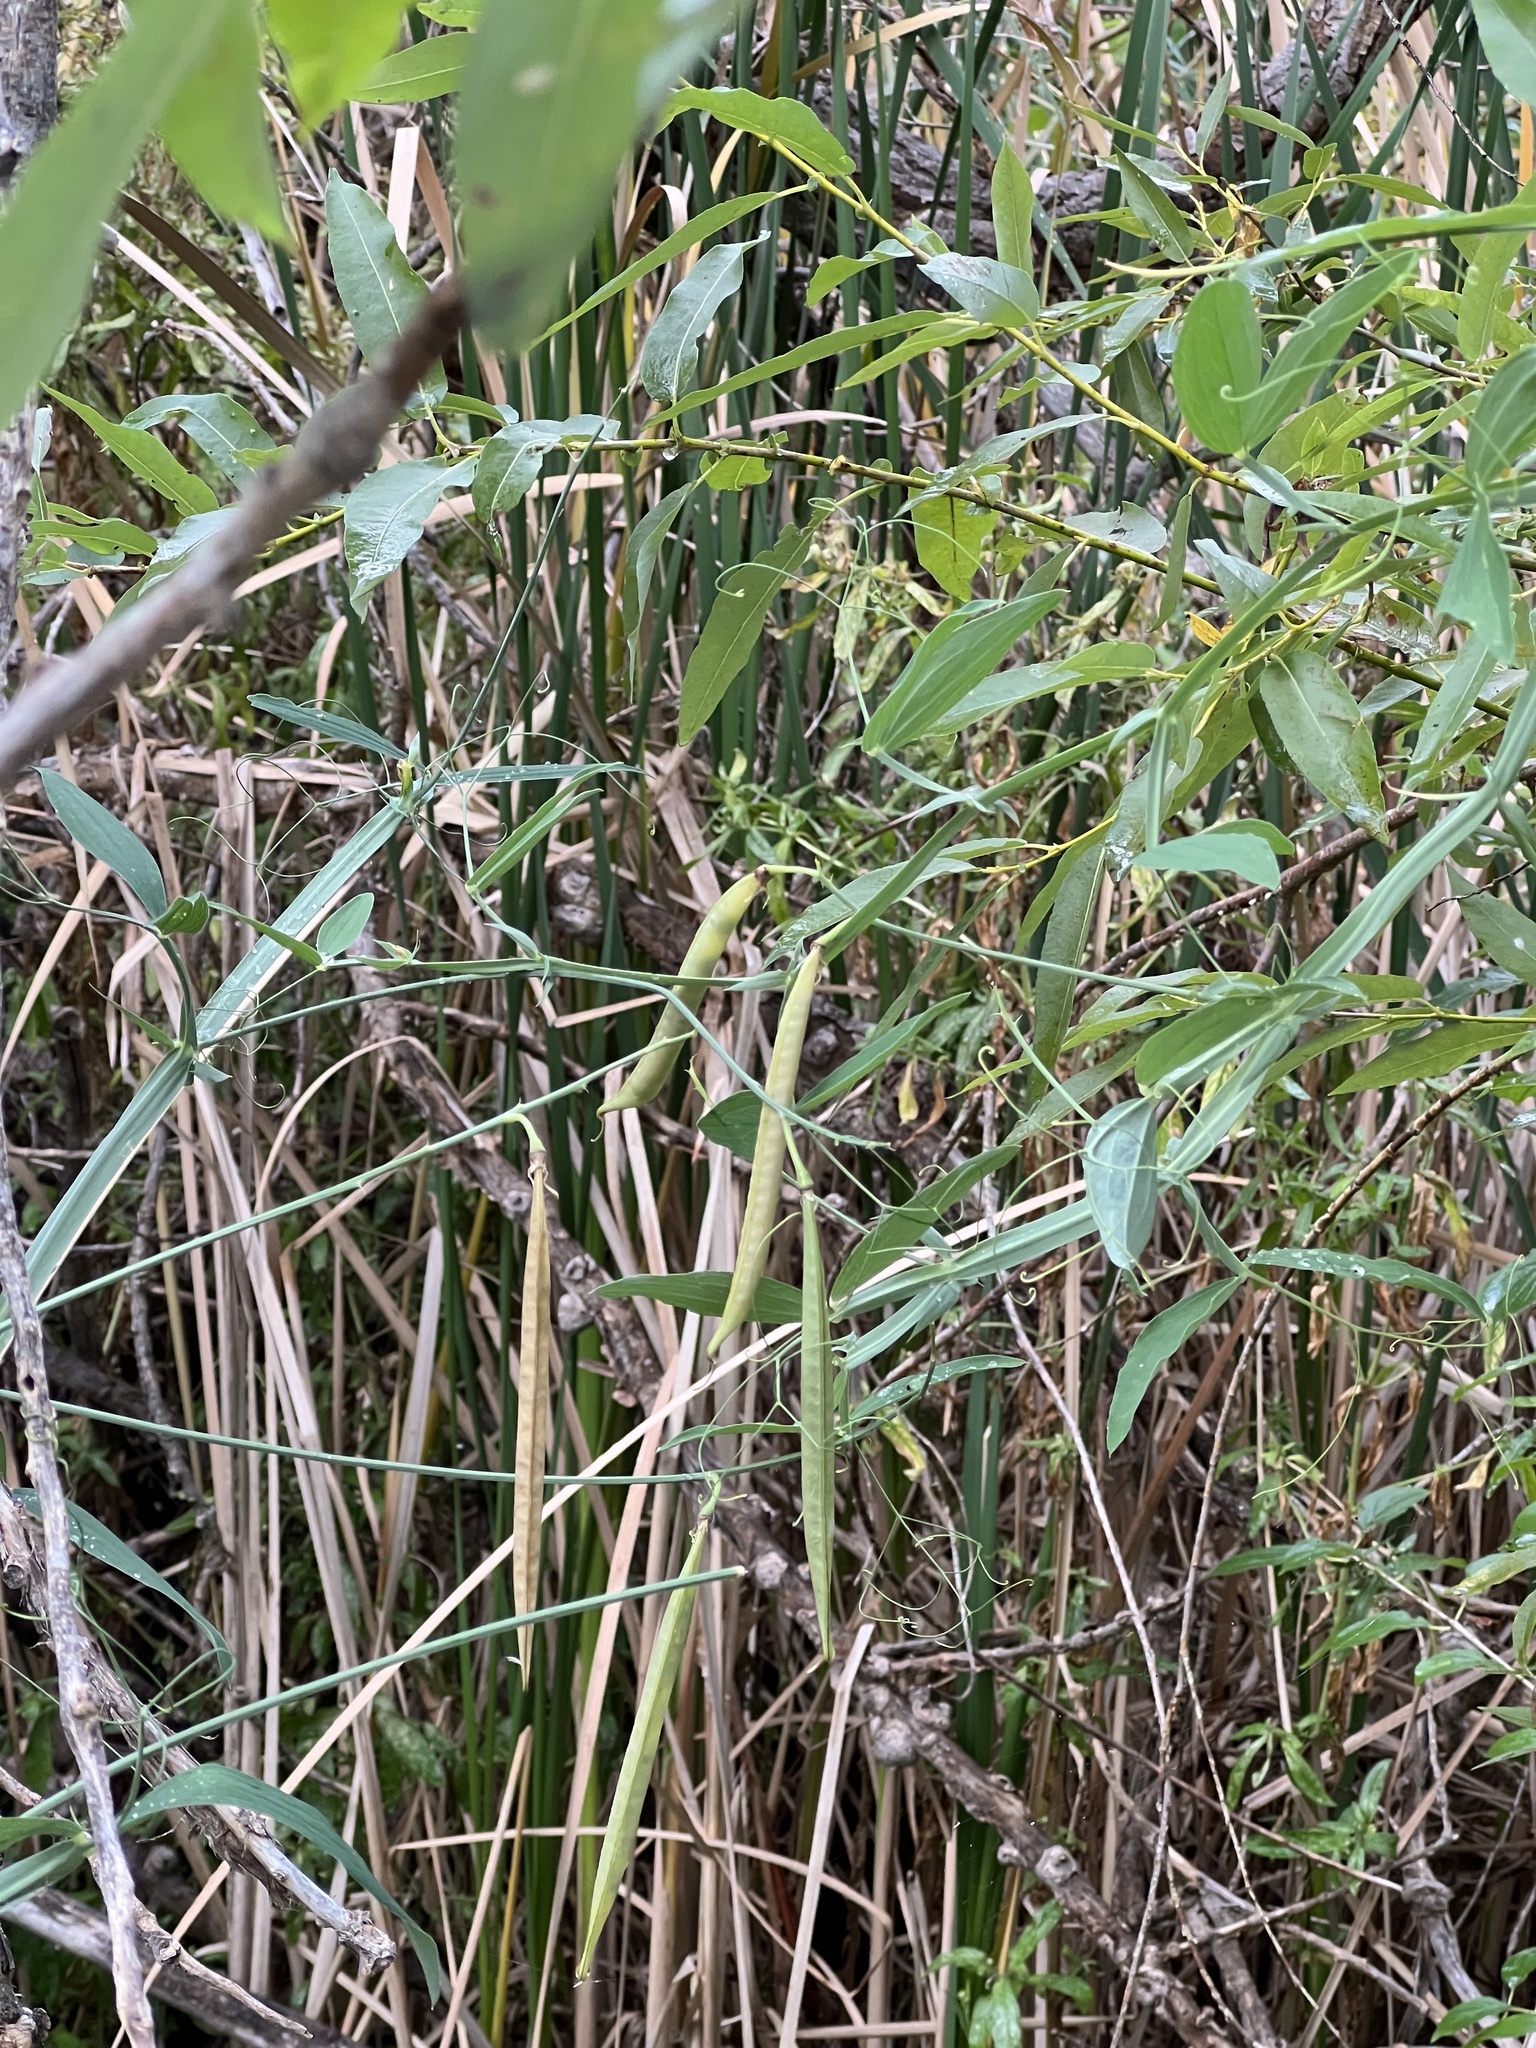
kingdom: Plantae
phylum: Tracheophyta
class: Magnoliopsida
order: Fabales
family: Fabaceae
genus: Lathyrus
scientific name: Lathyrus latifolius
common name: Perennial pea
